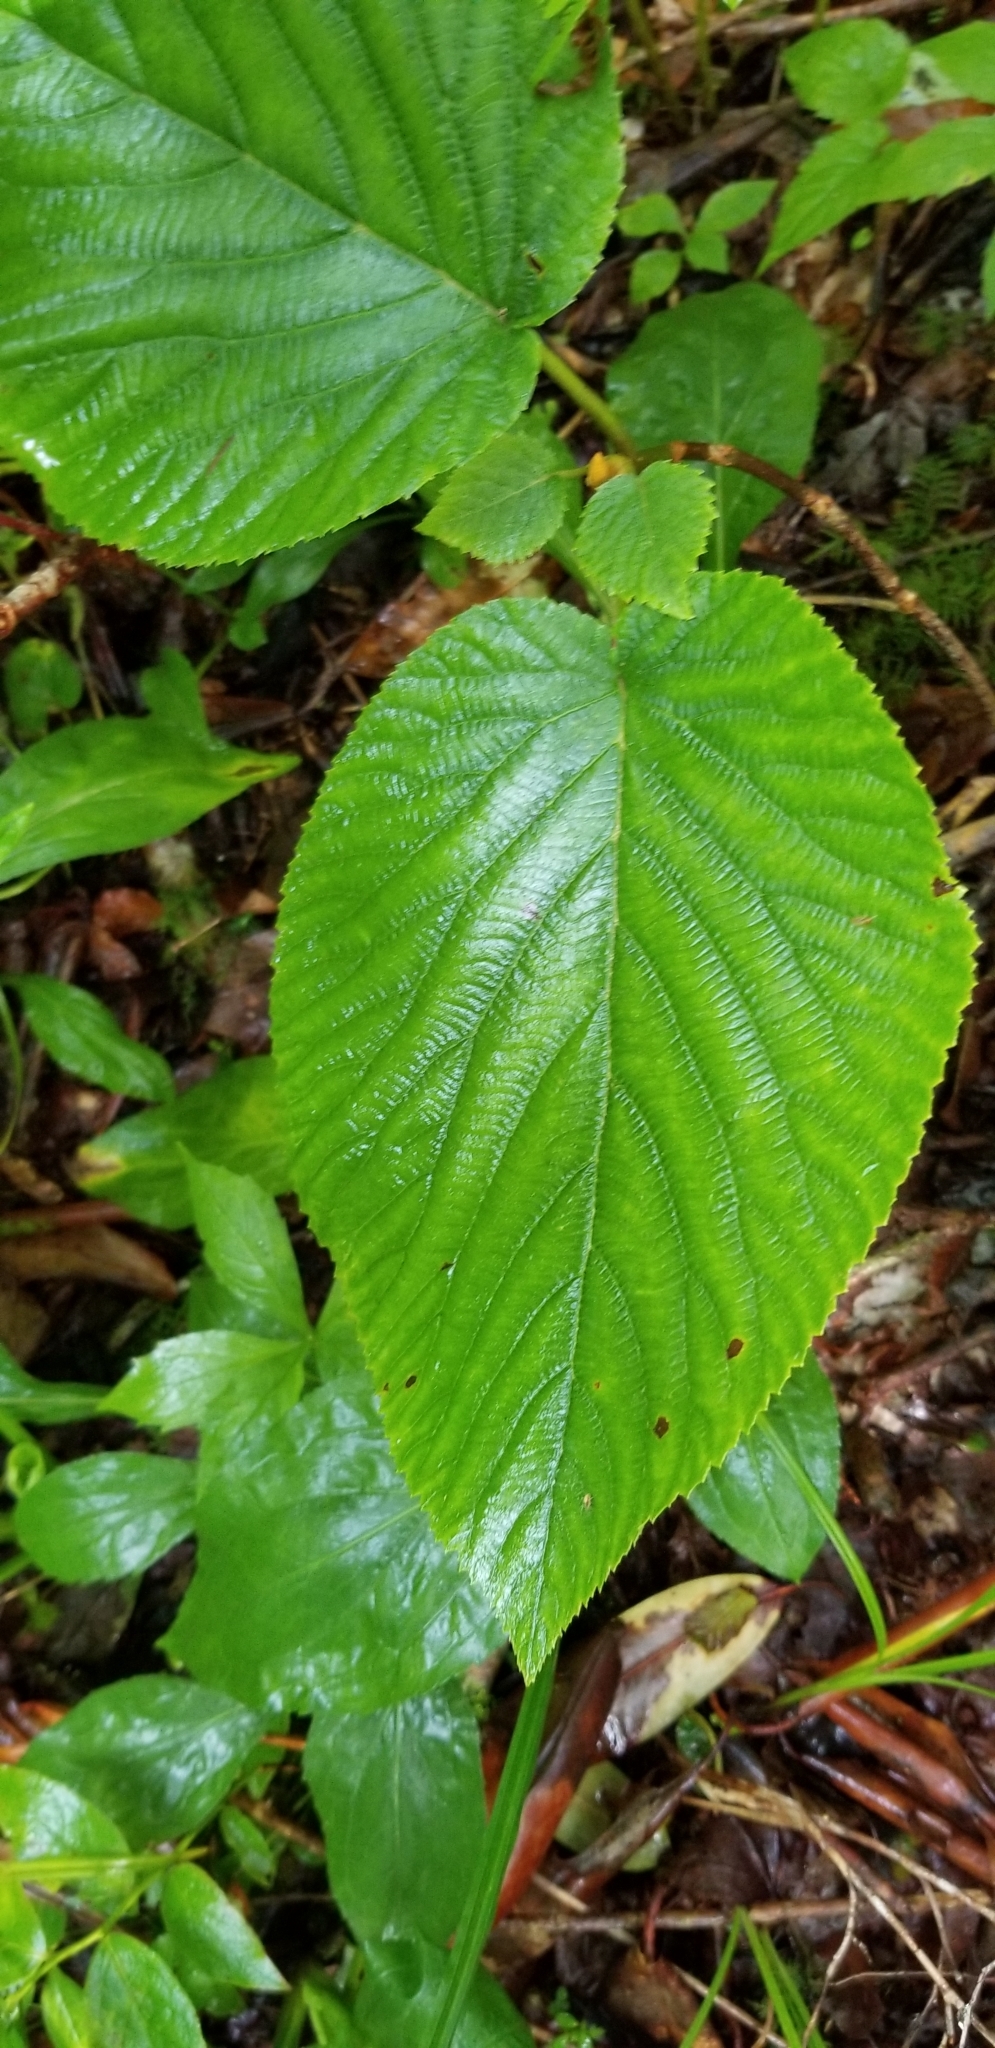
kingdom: Plantae
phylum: Tracheophyta
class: Magnoliopsida
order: Dipsacales
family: Viburnaceae
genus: Viburnum
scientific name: Viburnum lantanoides
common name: Hobblebush
